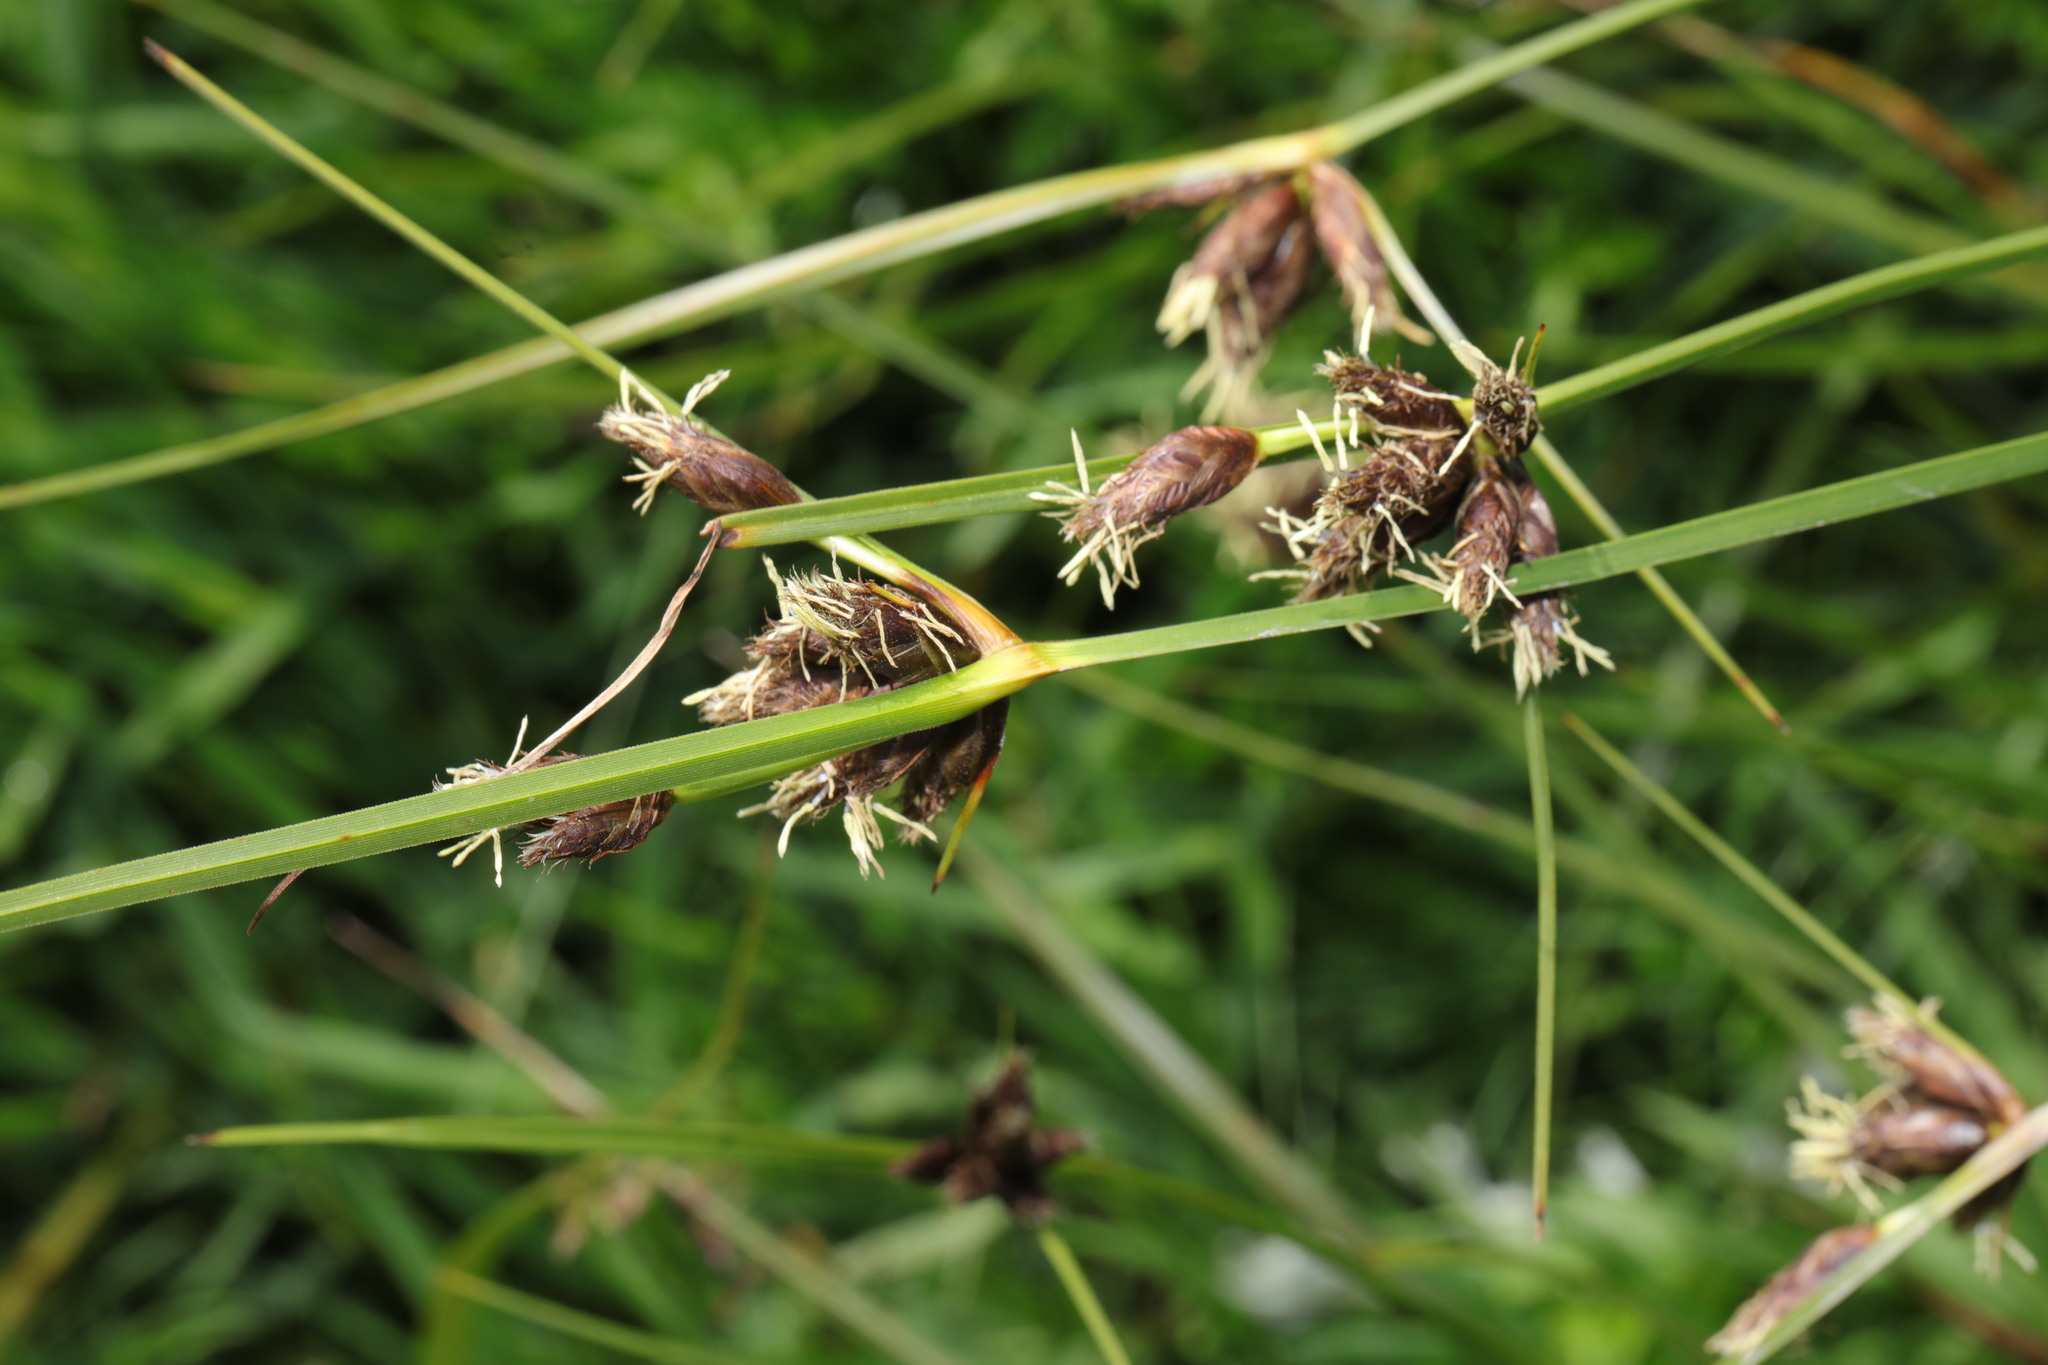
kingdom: Plantae
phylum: Tracheophyta
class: Liliopsida
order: Poales
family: Cyperaceae
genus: Bolboschoenus
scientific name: Bolboschoenus maritimus
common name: Sea club-rush
